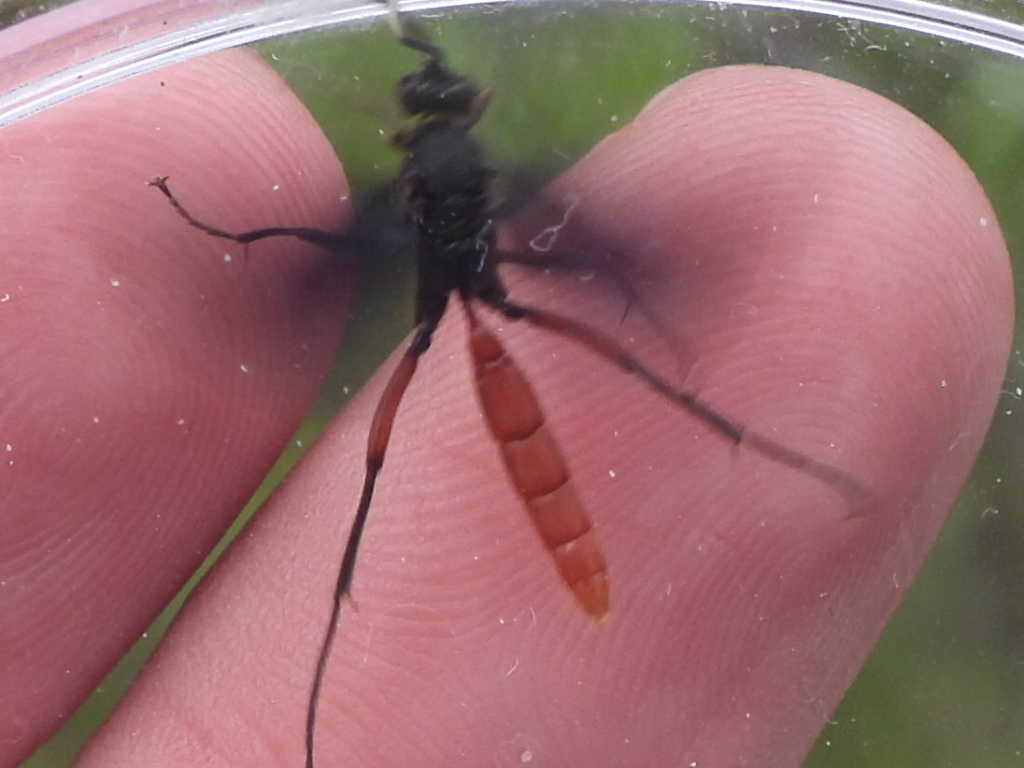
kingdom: Animalia
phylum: Arthropoda
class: Insecta
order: Hymenoptera
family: Ichneumonidae
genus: Limonethe
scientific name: Limonethe maurator
